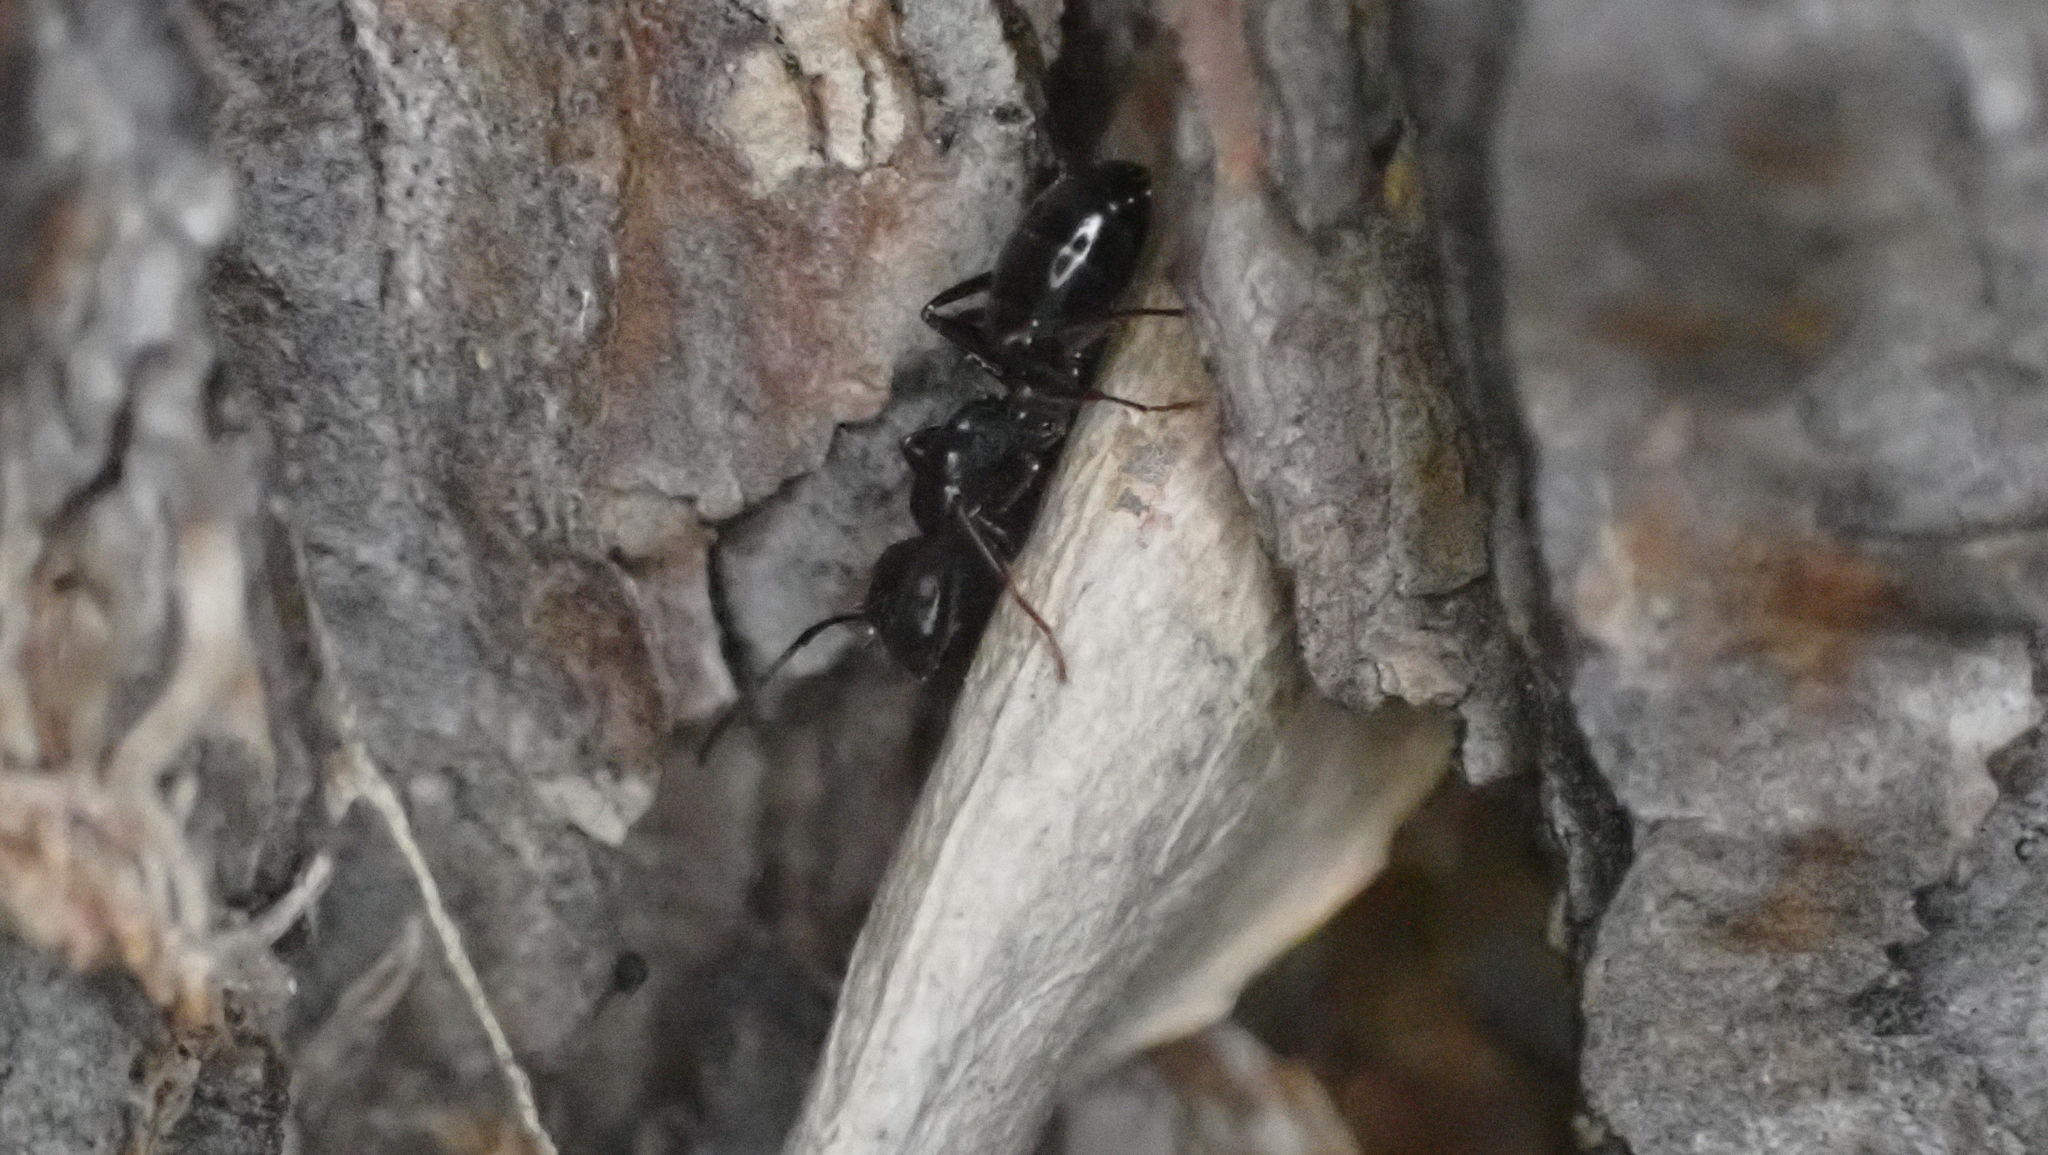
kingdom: Animalia
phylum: Arthropoda
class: Insecta
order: Hymenoptera
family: Formicidae
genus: Camponotus
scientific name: Camponotus nearcticus
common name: Smaller carpenter ant
